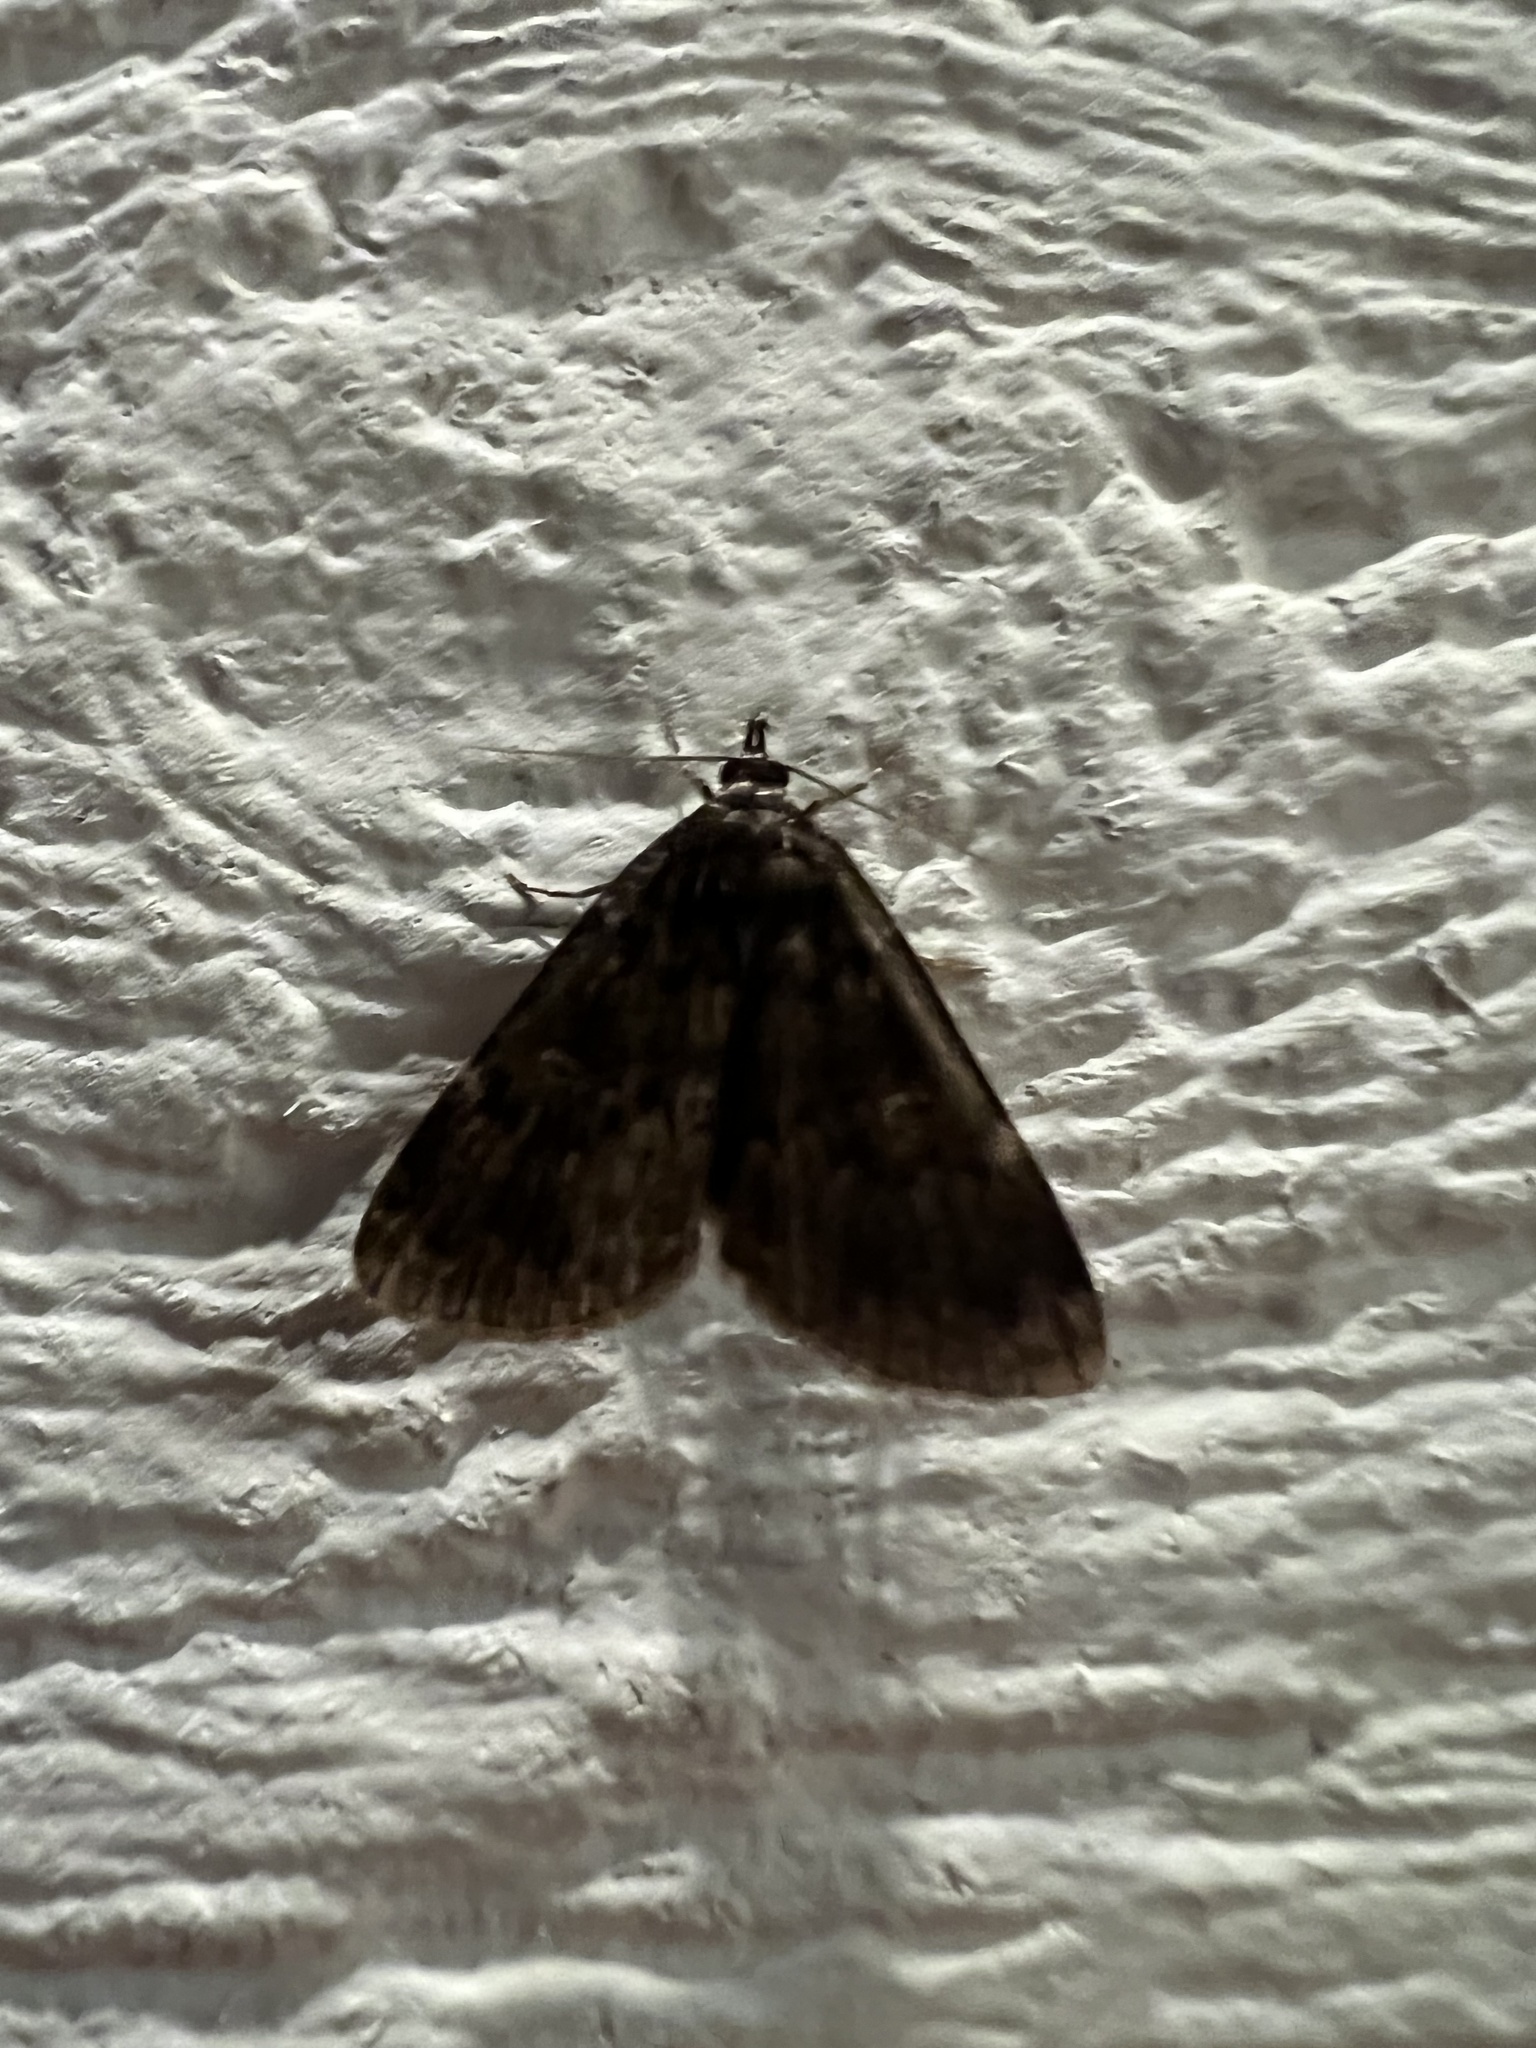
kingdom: Animalia
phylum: Arthropoda
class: Insecta
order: Lepidoptera
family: Erebidae
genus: Idia
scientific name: Idia lubricalis
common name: Twin-striped tabby
